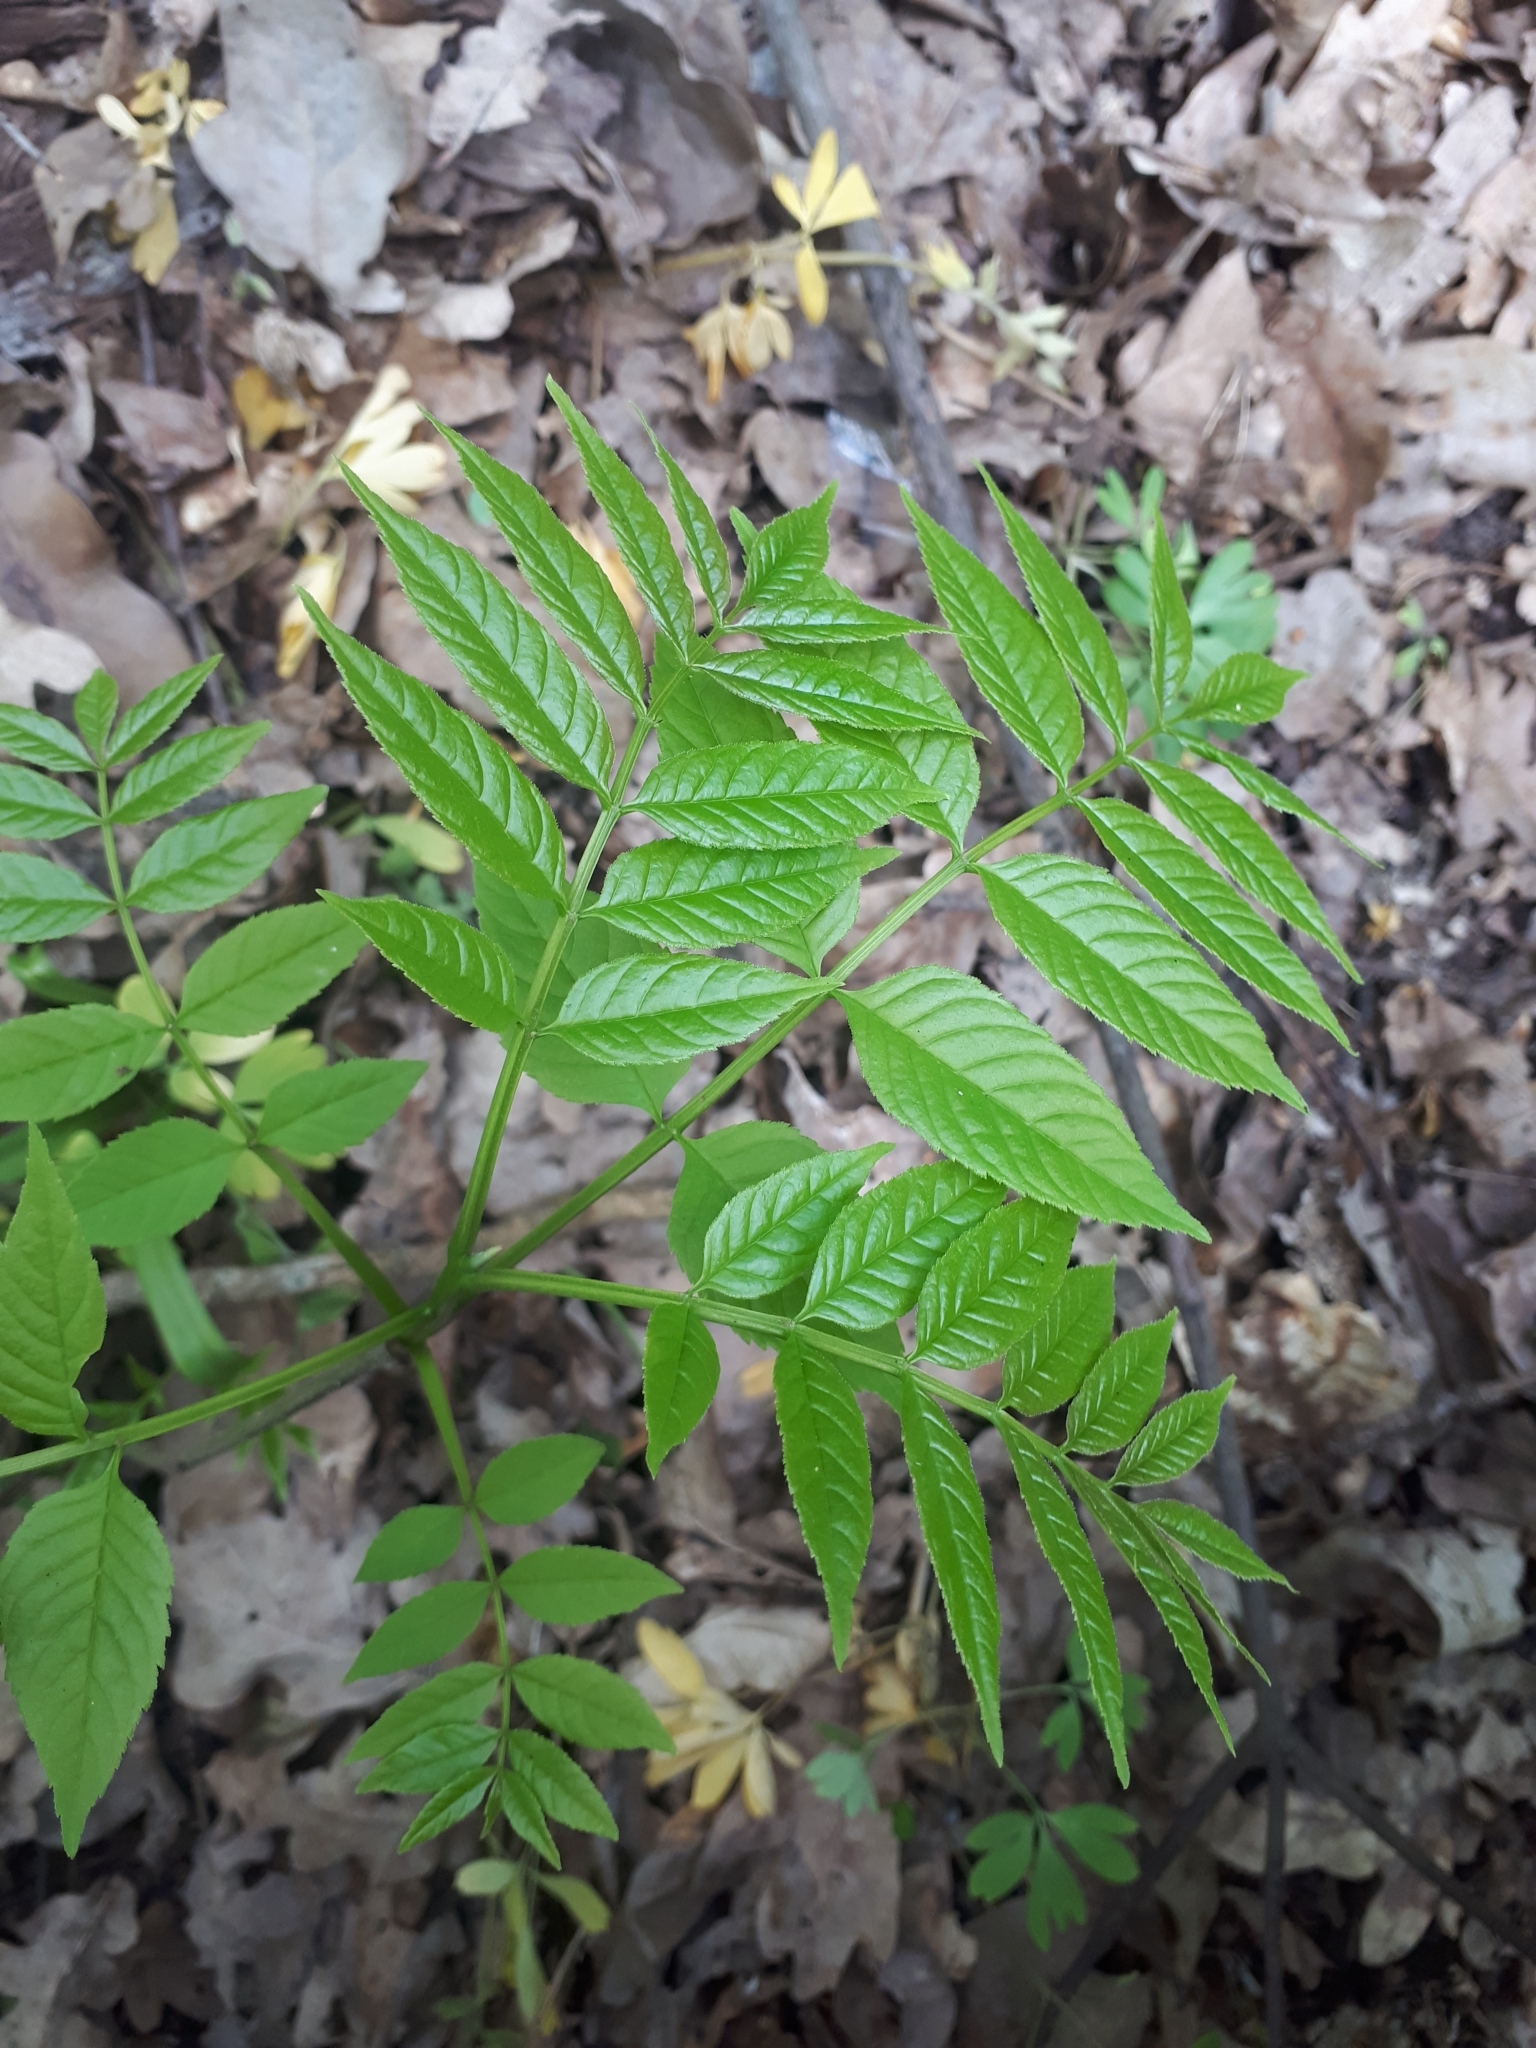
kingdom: Plantae
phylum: Tracheophyta
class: Magnoliopsida
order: Lamiales
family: Oleaceae
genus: Fraxinus
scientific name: Fraxinus excelsior
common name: European ash
